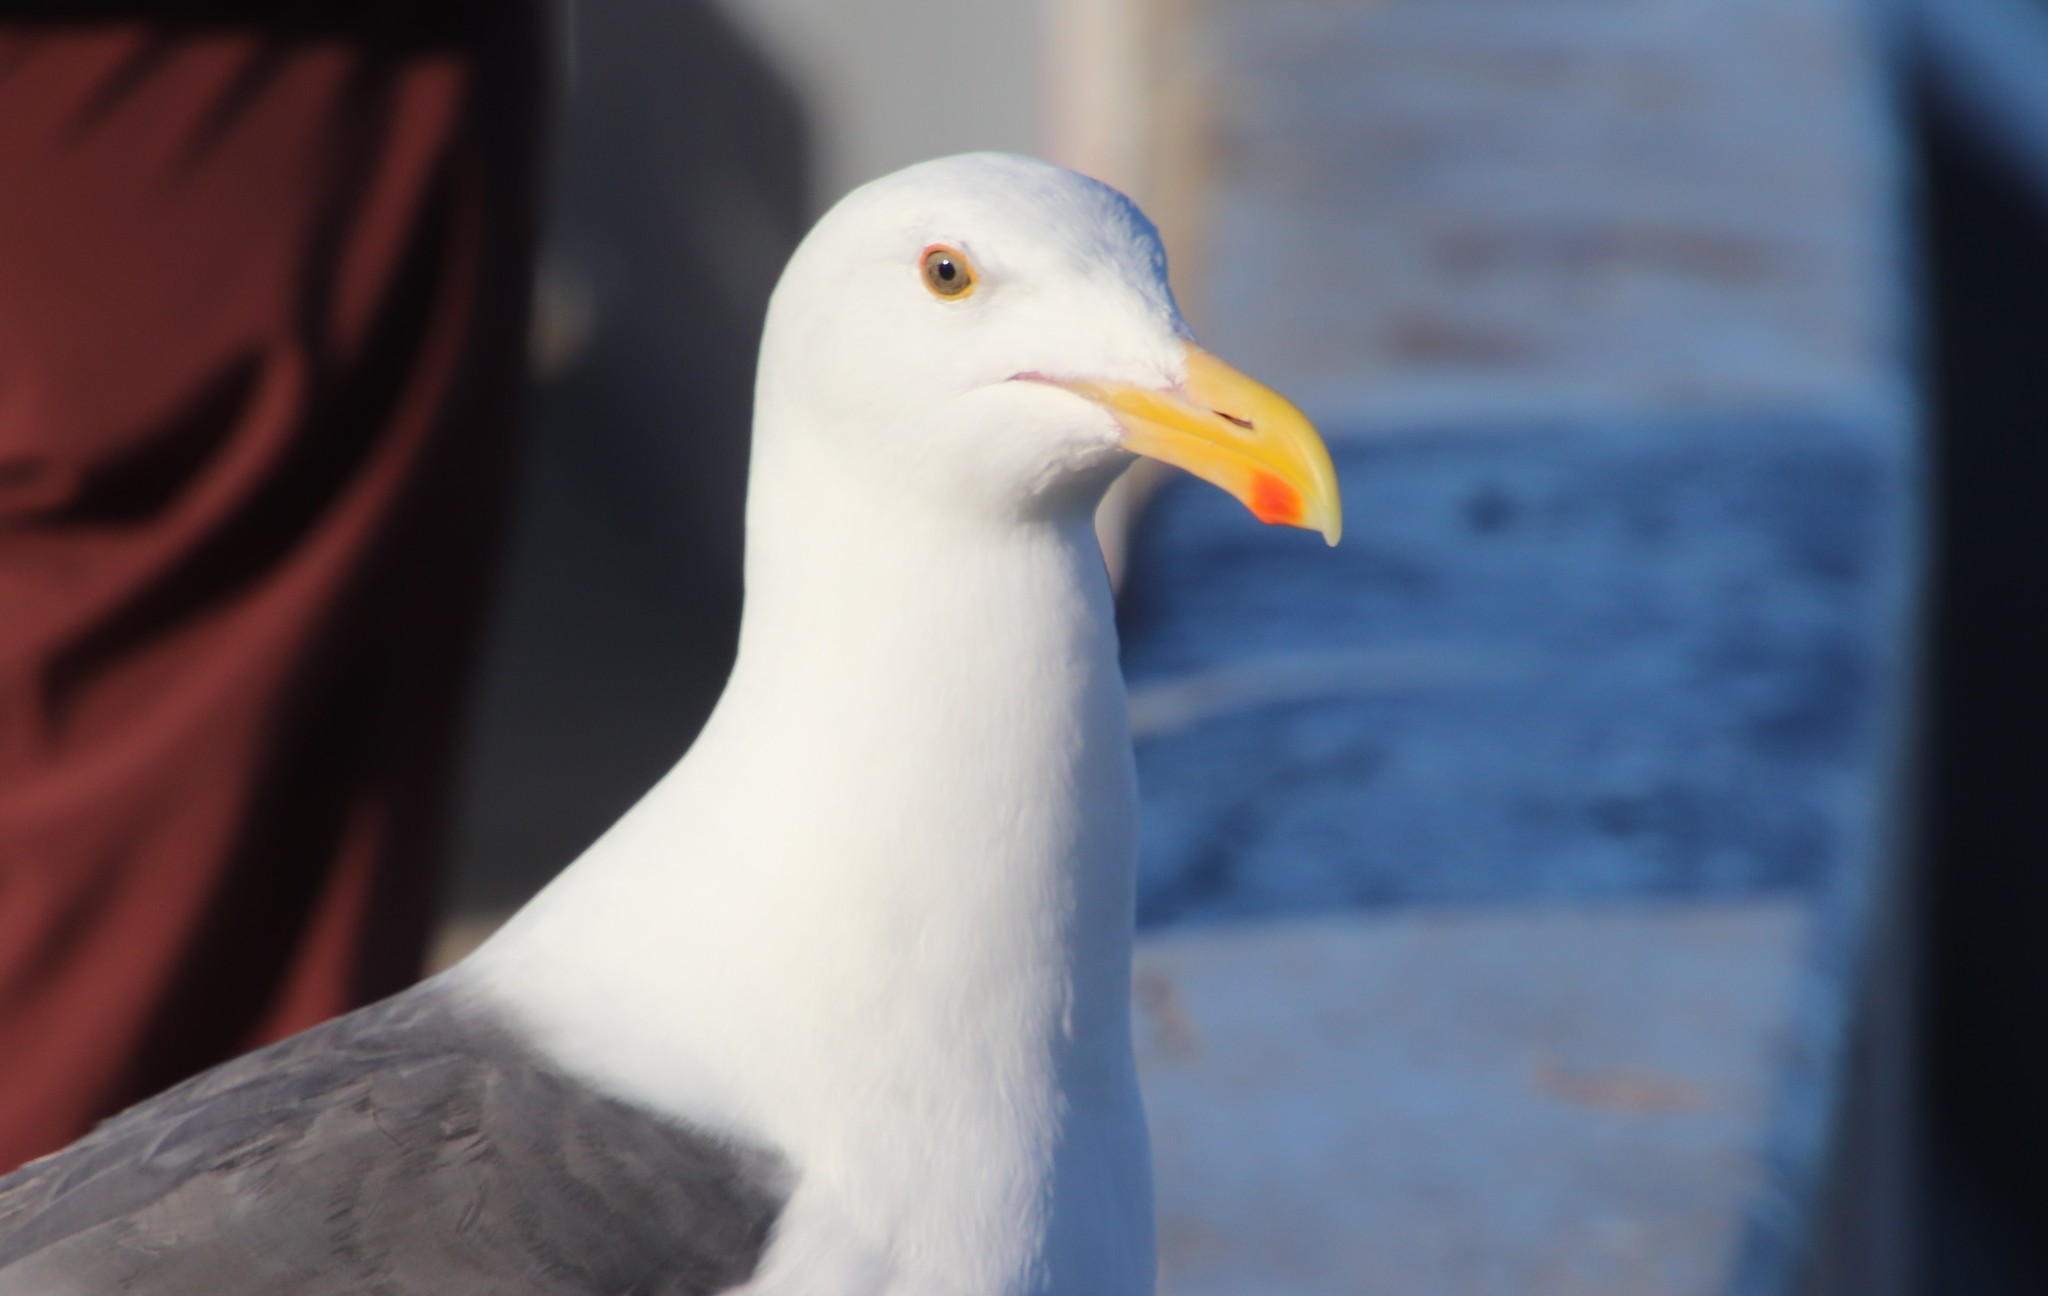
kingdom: Animalia
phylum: Chordata
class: Aves
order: Charadriiformes
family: Laridae
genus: Larus
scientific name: Larus occidentalis
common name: Western gull
